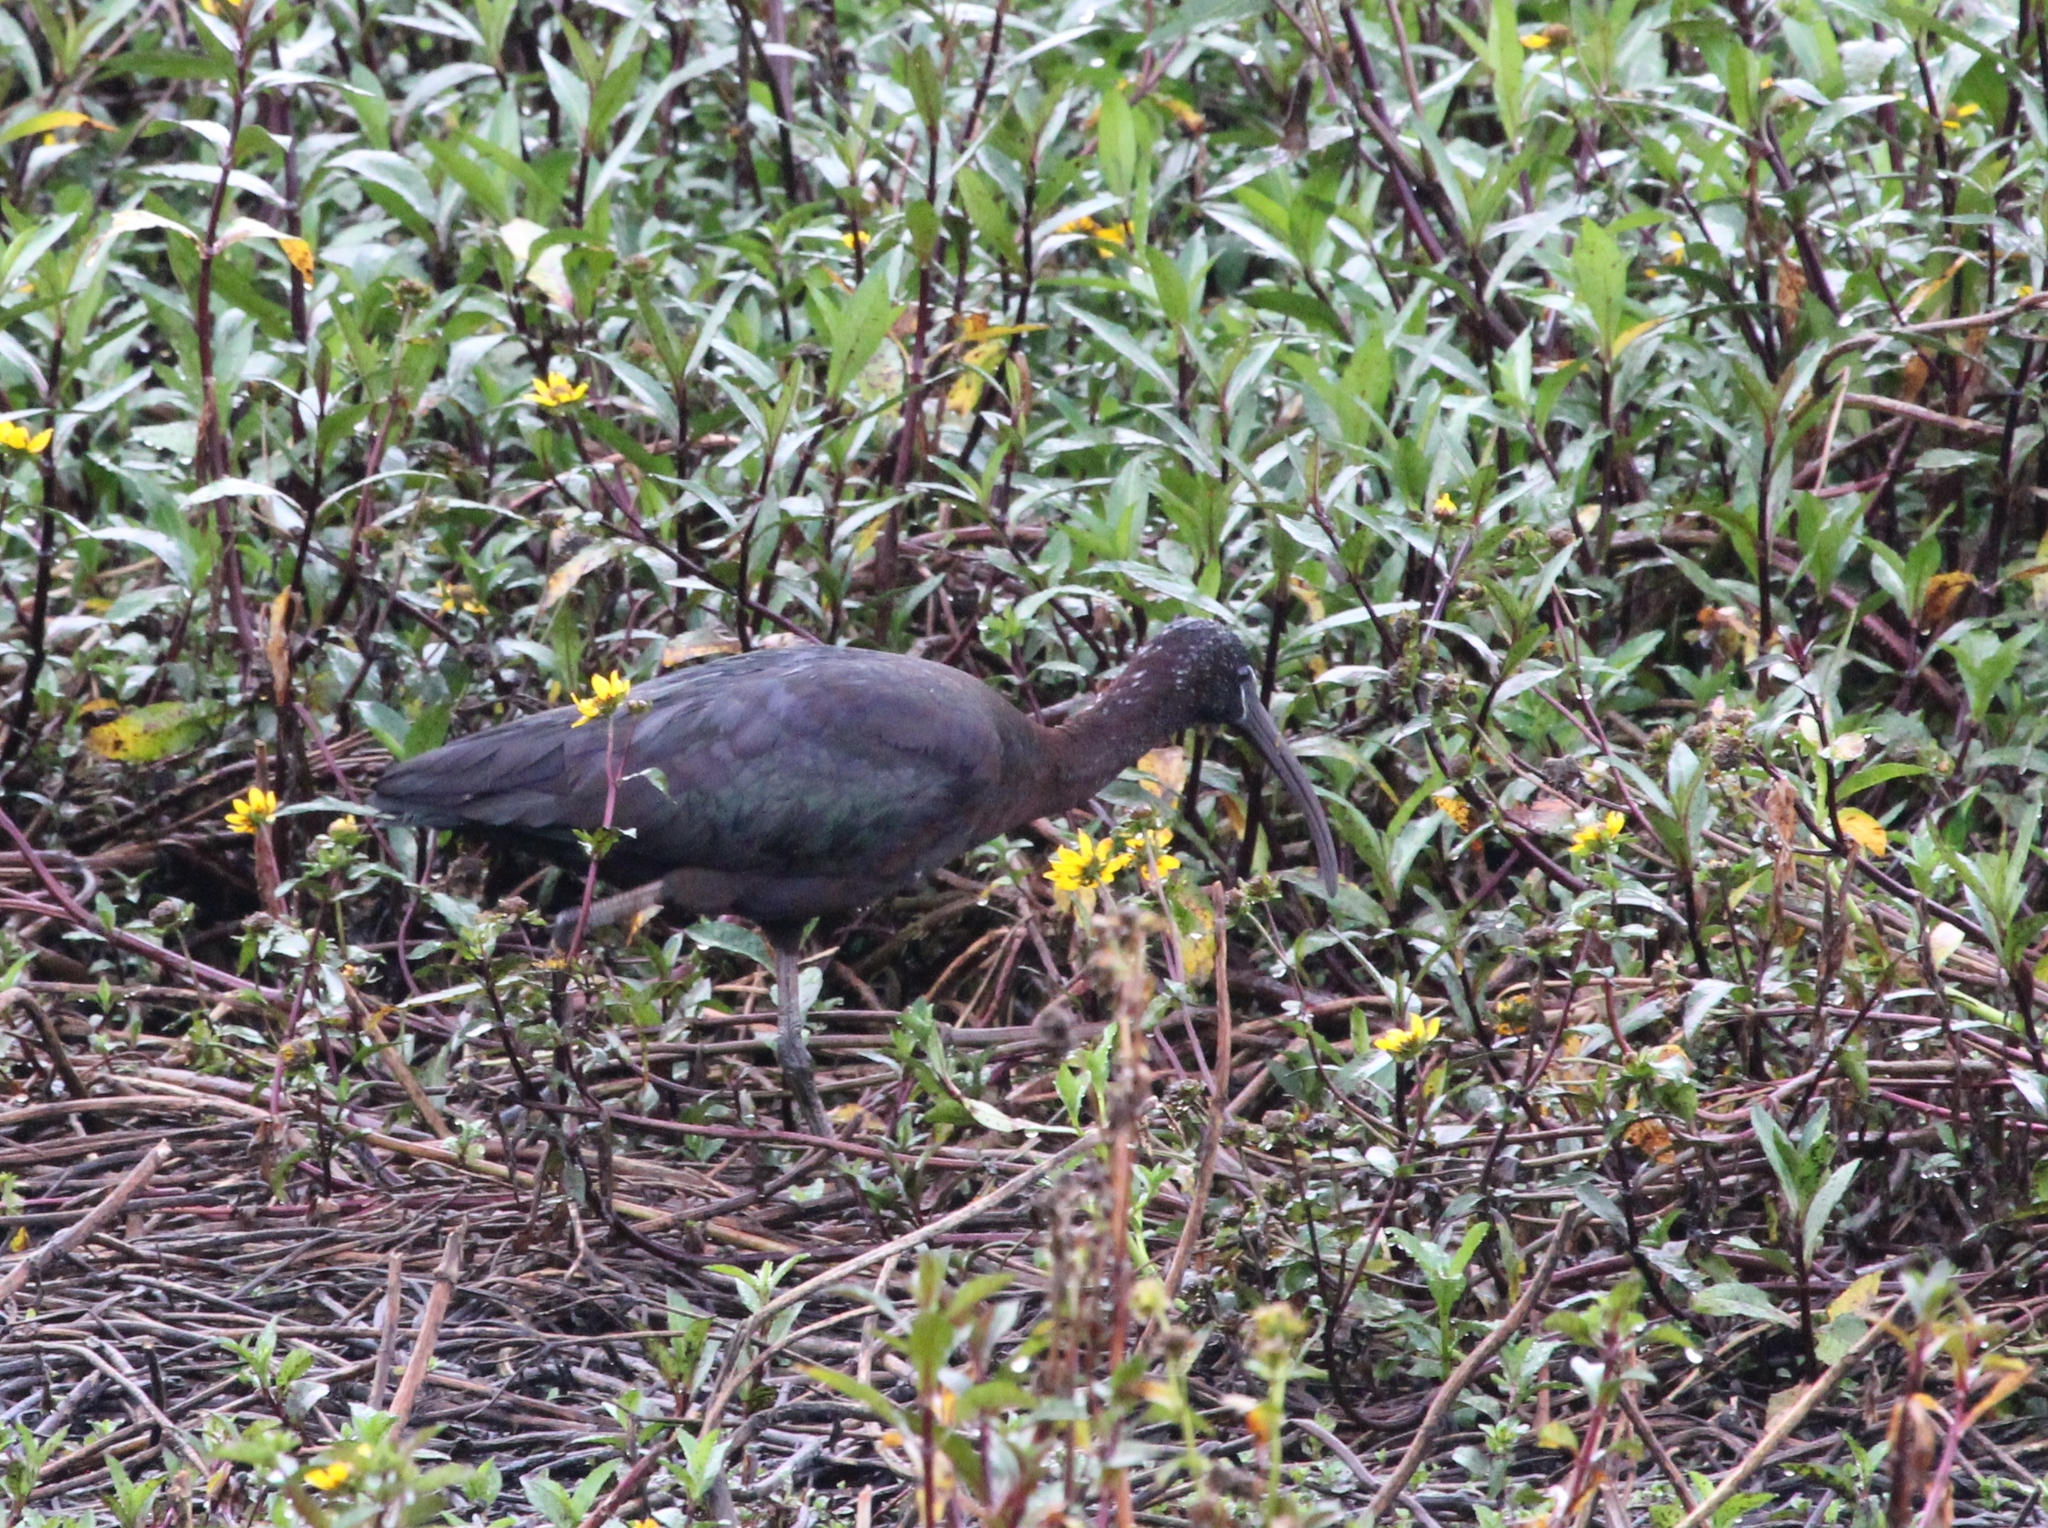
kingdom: Animalia
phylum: Chordata
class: Aves
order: Pelecaniformes
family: Threskiornithidae
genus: Plegadis
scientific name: Plegadis falcinellus
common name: Glossy ibis
